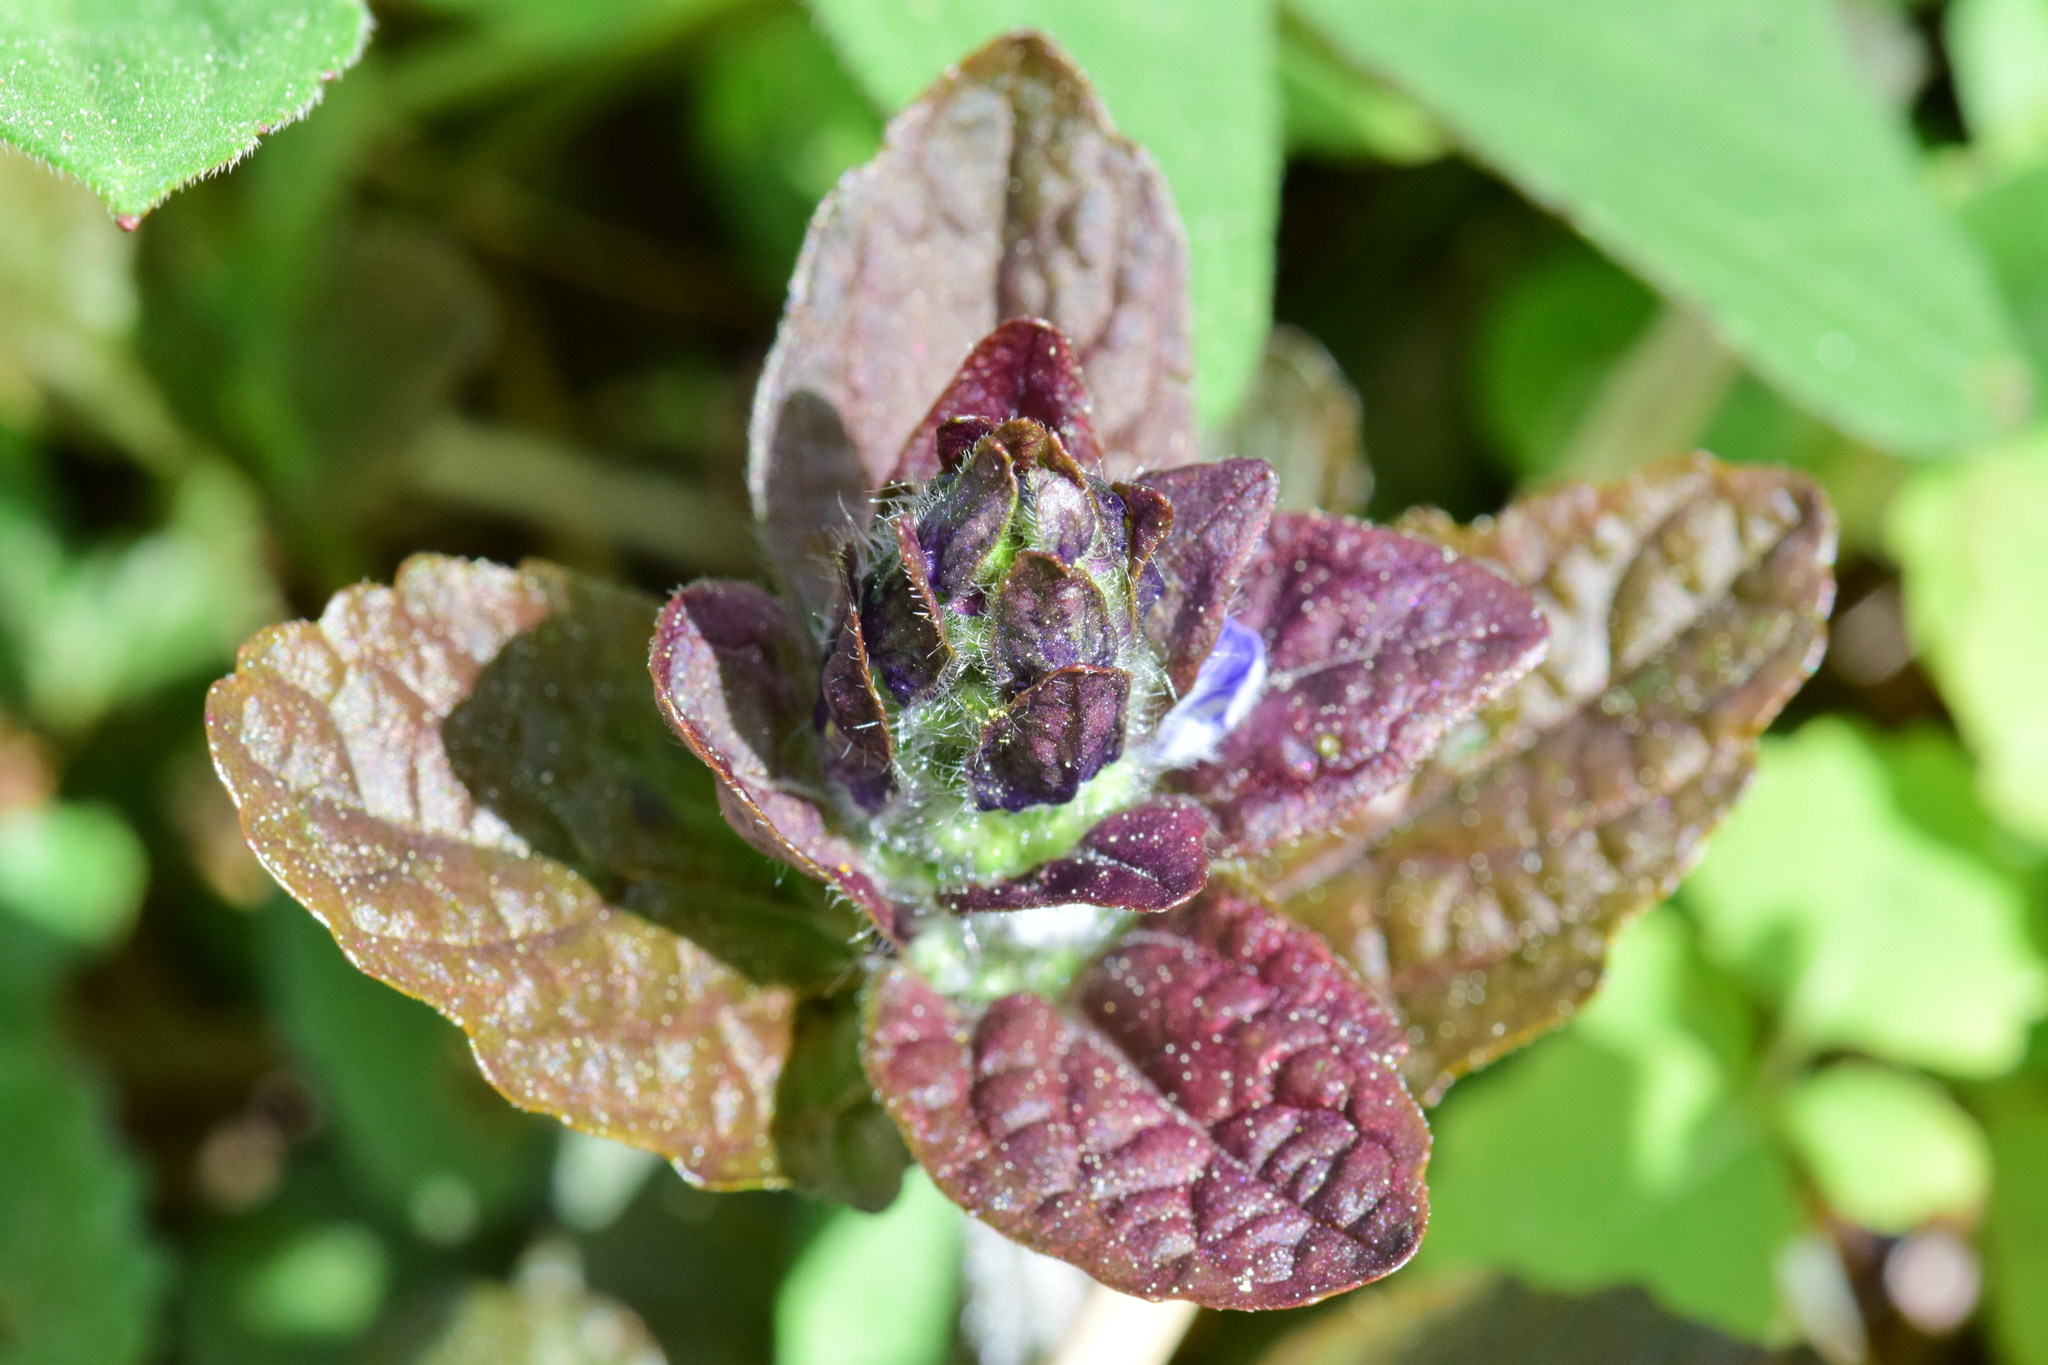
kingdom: Plantae
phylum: Tracheophyta
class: Magnoliopsida
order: Lamiales
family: Lamiaceae
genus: Ajuga
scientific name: Ajuga reptans
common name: Bugle
